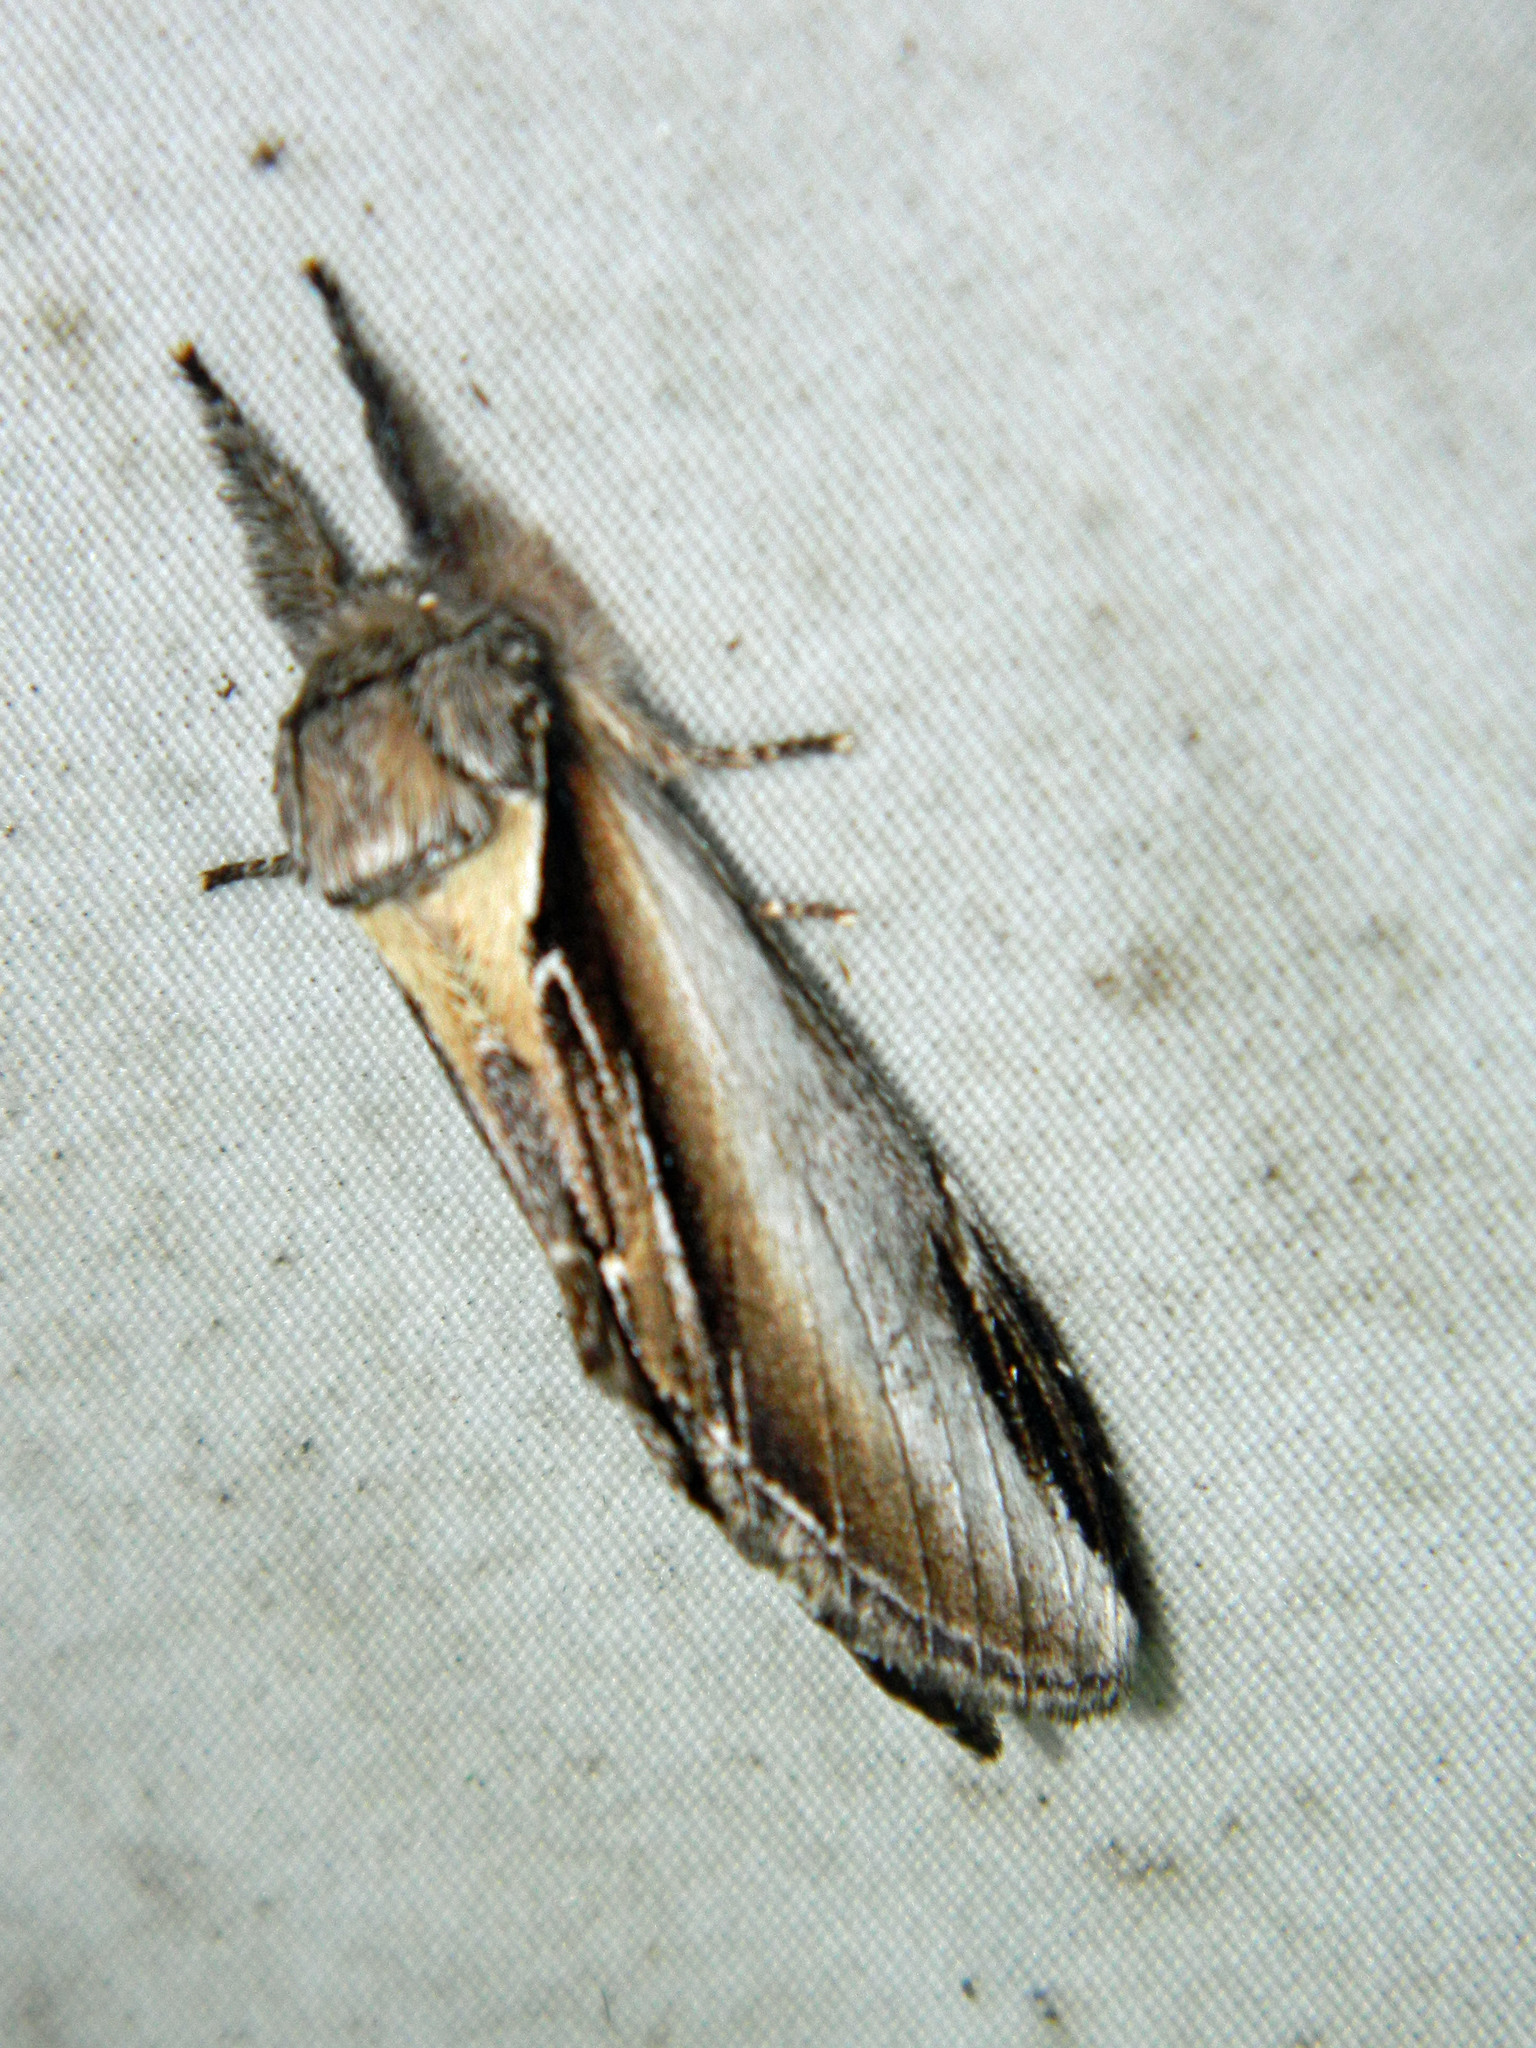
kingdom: Animalia
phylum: Arthropoda
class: Insecta
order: Lepidoptera
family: Notodontidae
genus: Pheosia
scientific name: Pheosia rimosa
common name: Black-rimmed prominent
